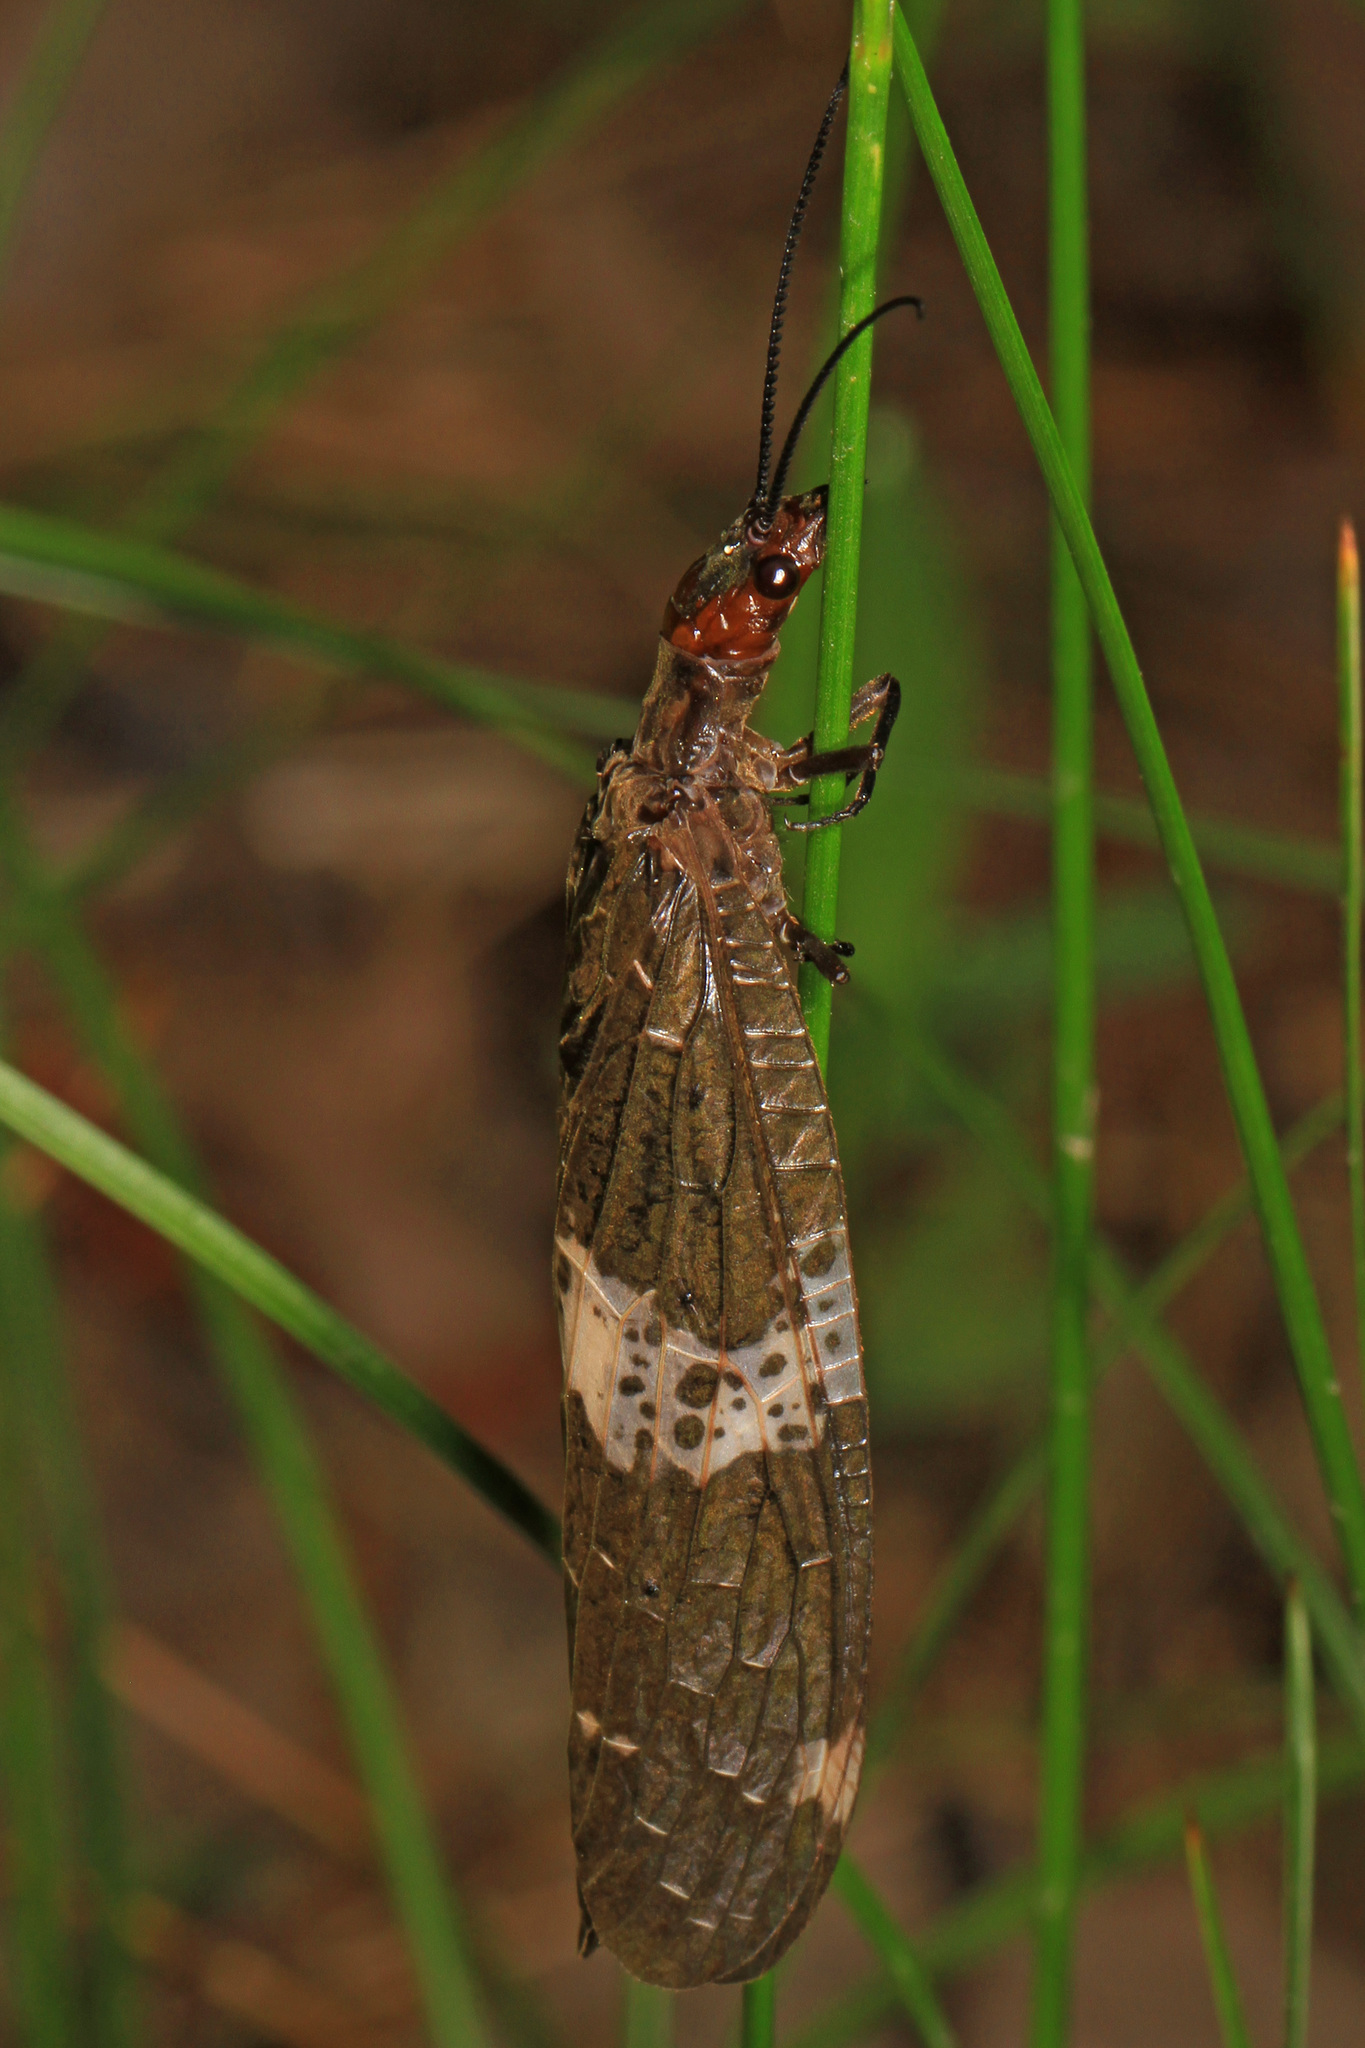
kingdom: Animalia
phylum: Arthropoda
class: Insecta
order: Megaloptera
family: Corydalidae
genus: Nigronia
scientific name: Nigronia fasciata
